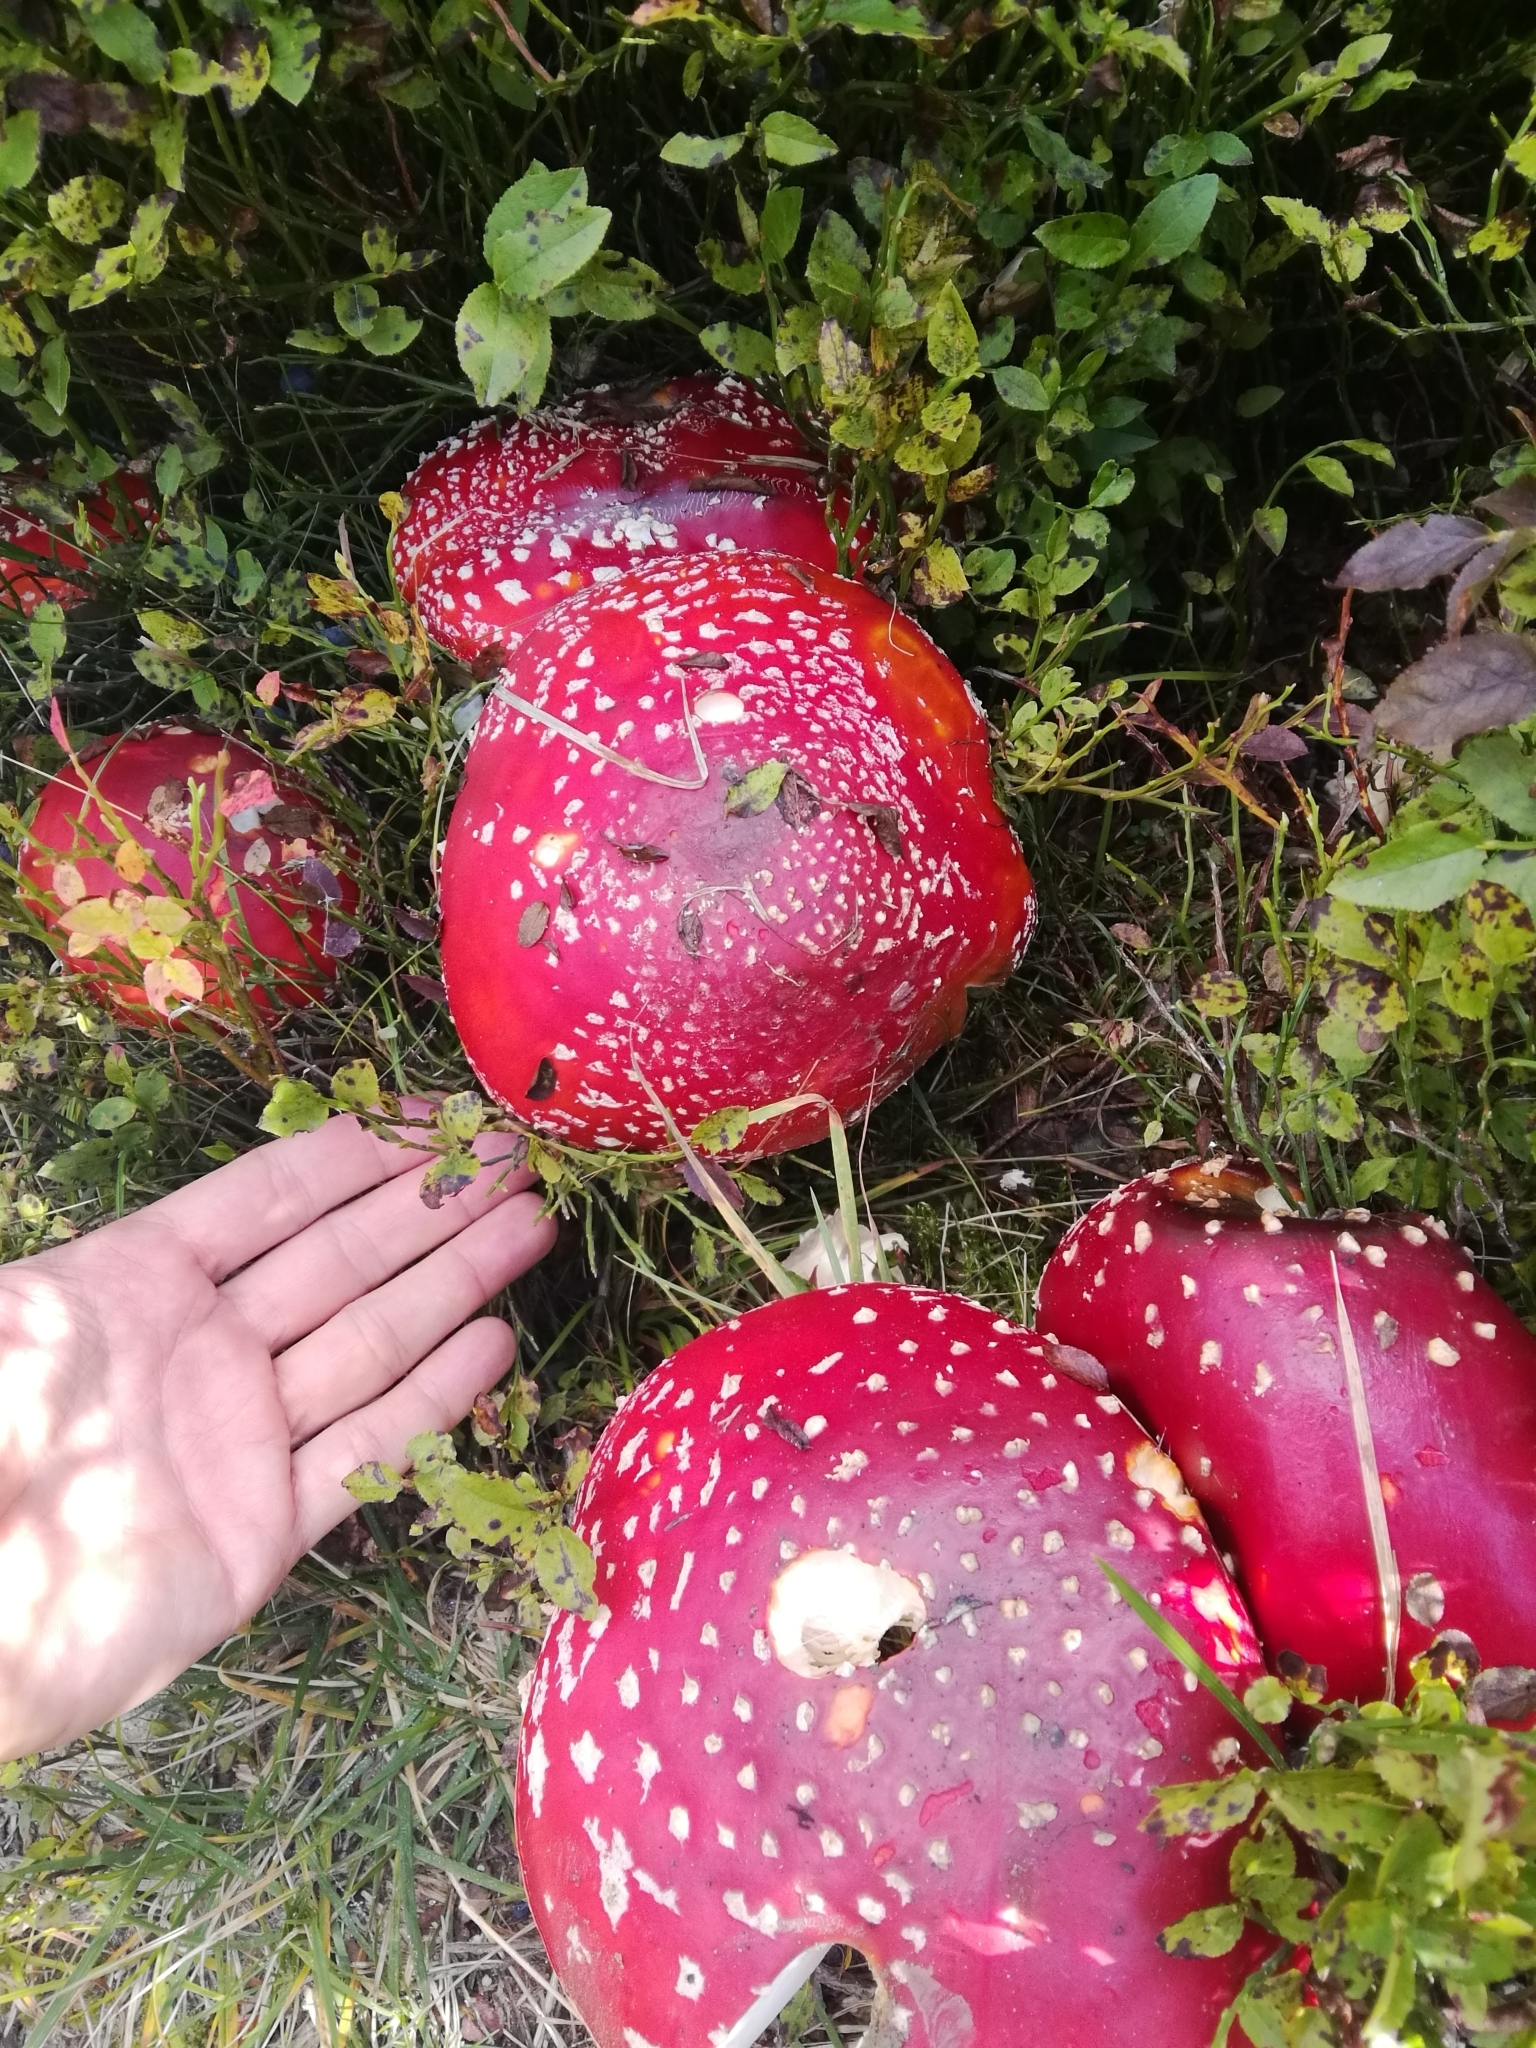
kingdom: Fungi
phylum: Basidiomycota
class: Agaricomycetes
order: Agaricales
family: Amanitaceae
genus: Amanita
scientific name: Amanita muscaria
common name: Fly agaric
